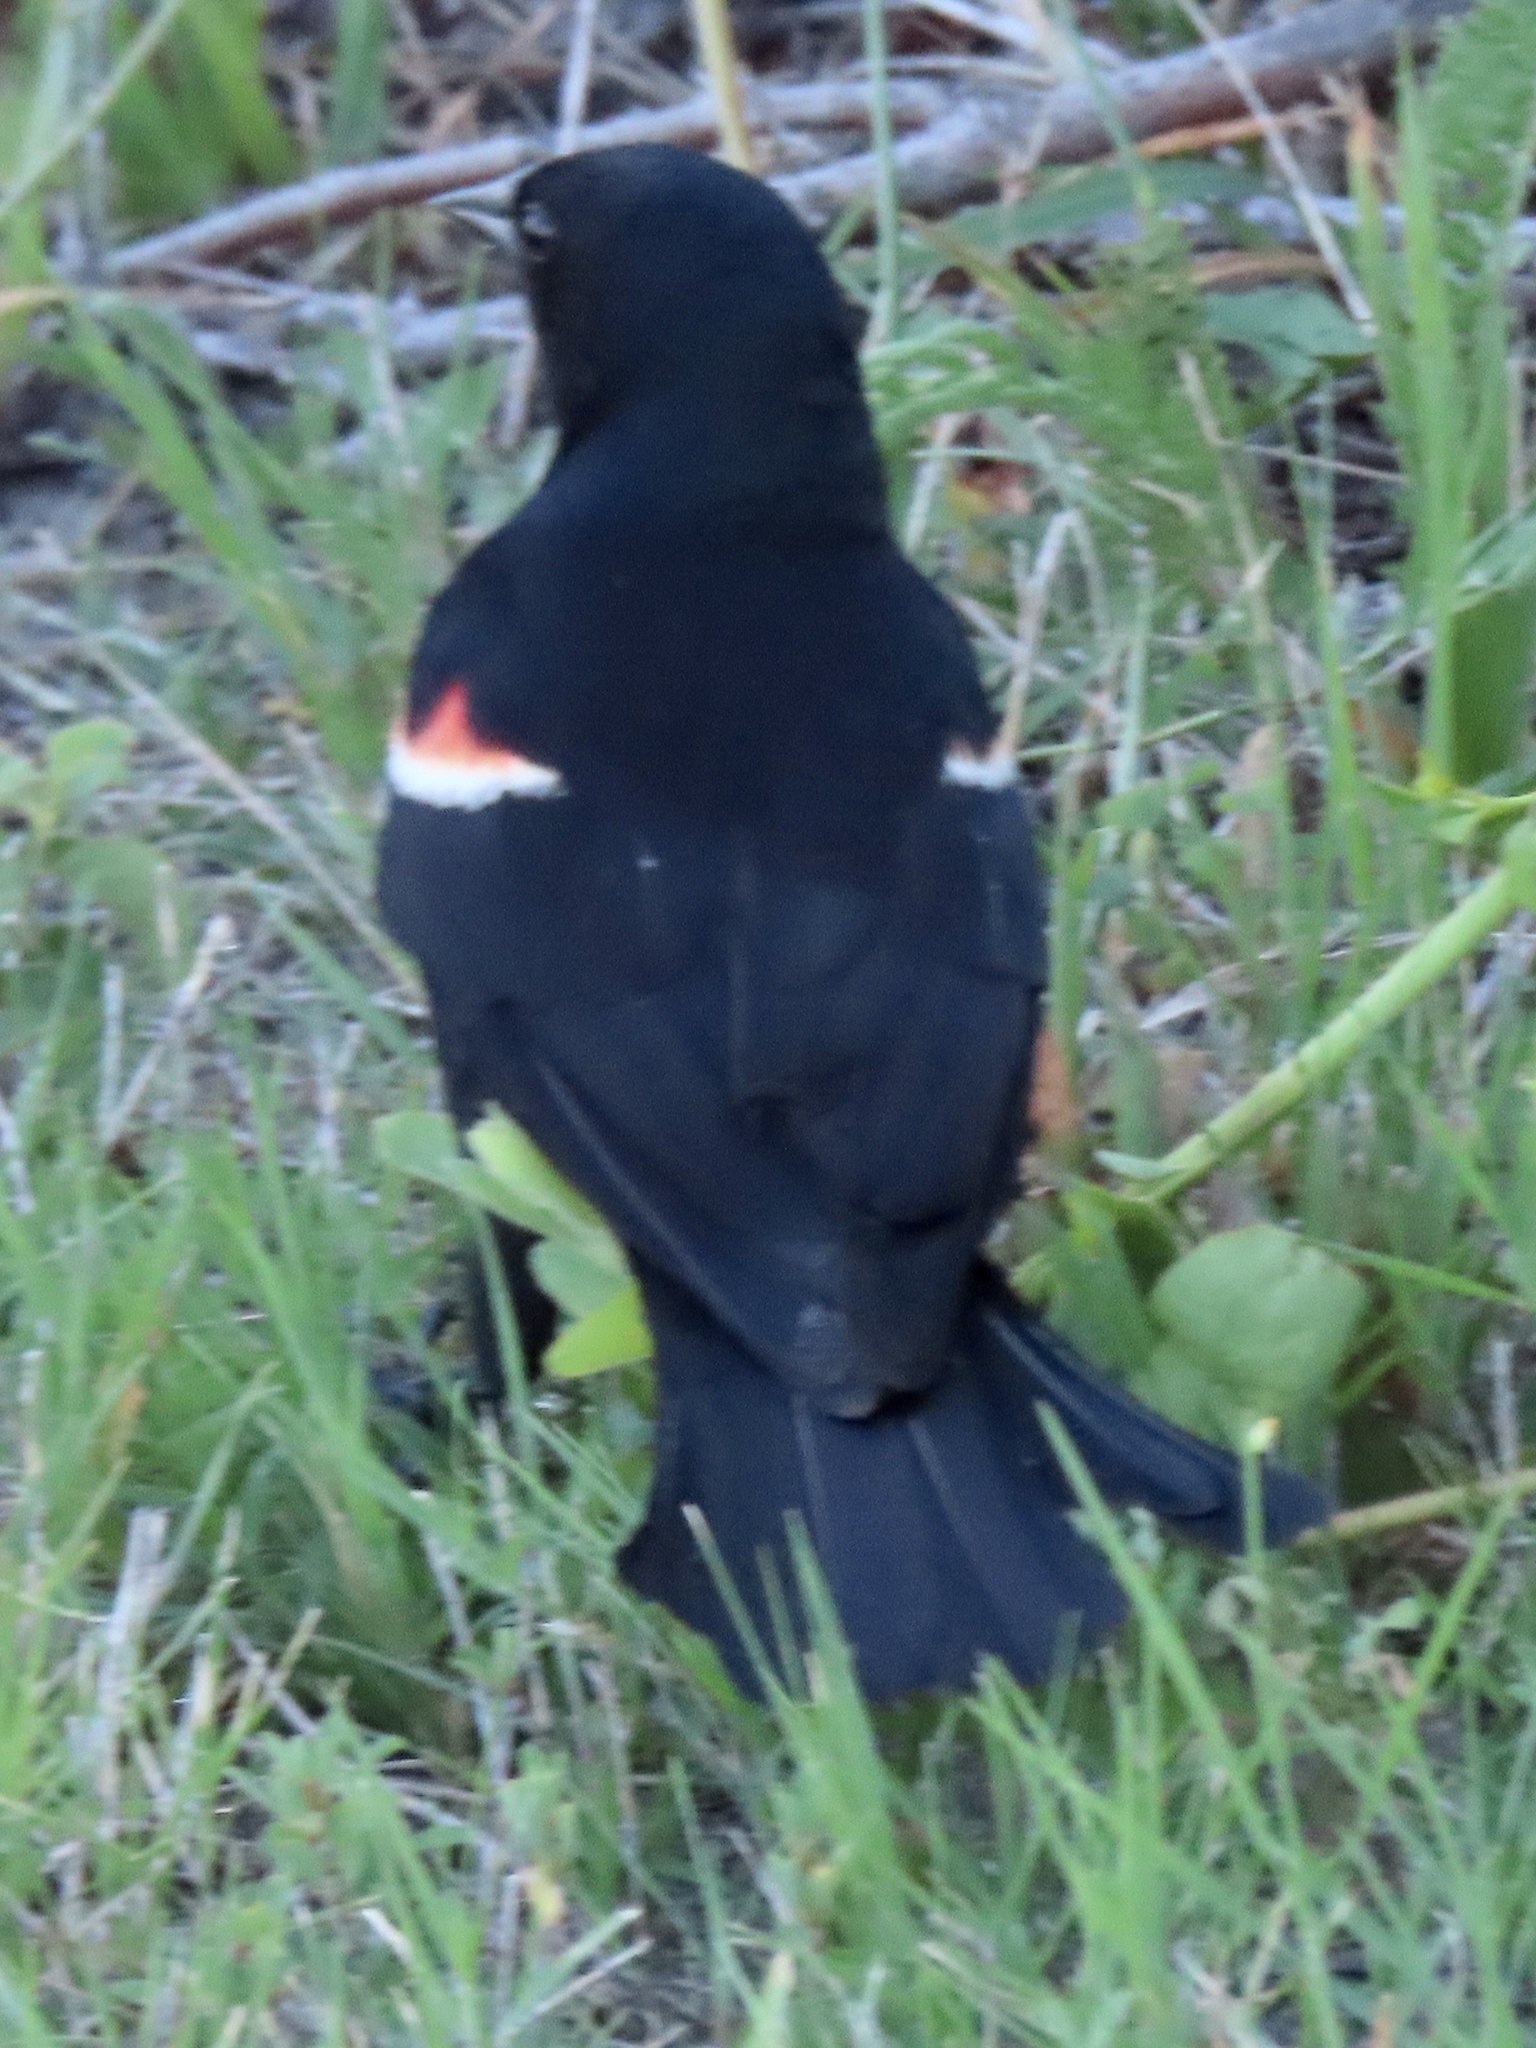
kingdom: Animalia
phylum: Chordata
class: Aves
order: Passeriformes
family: Icteridae
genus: Agelaius
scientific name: Agelaius phoeniceus
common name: Red-winged blackbird
